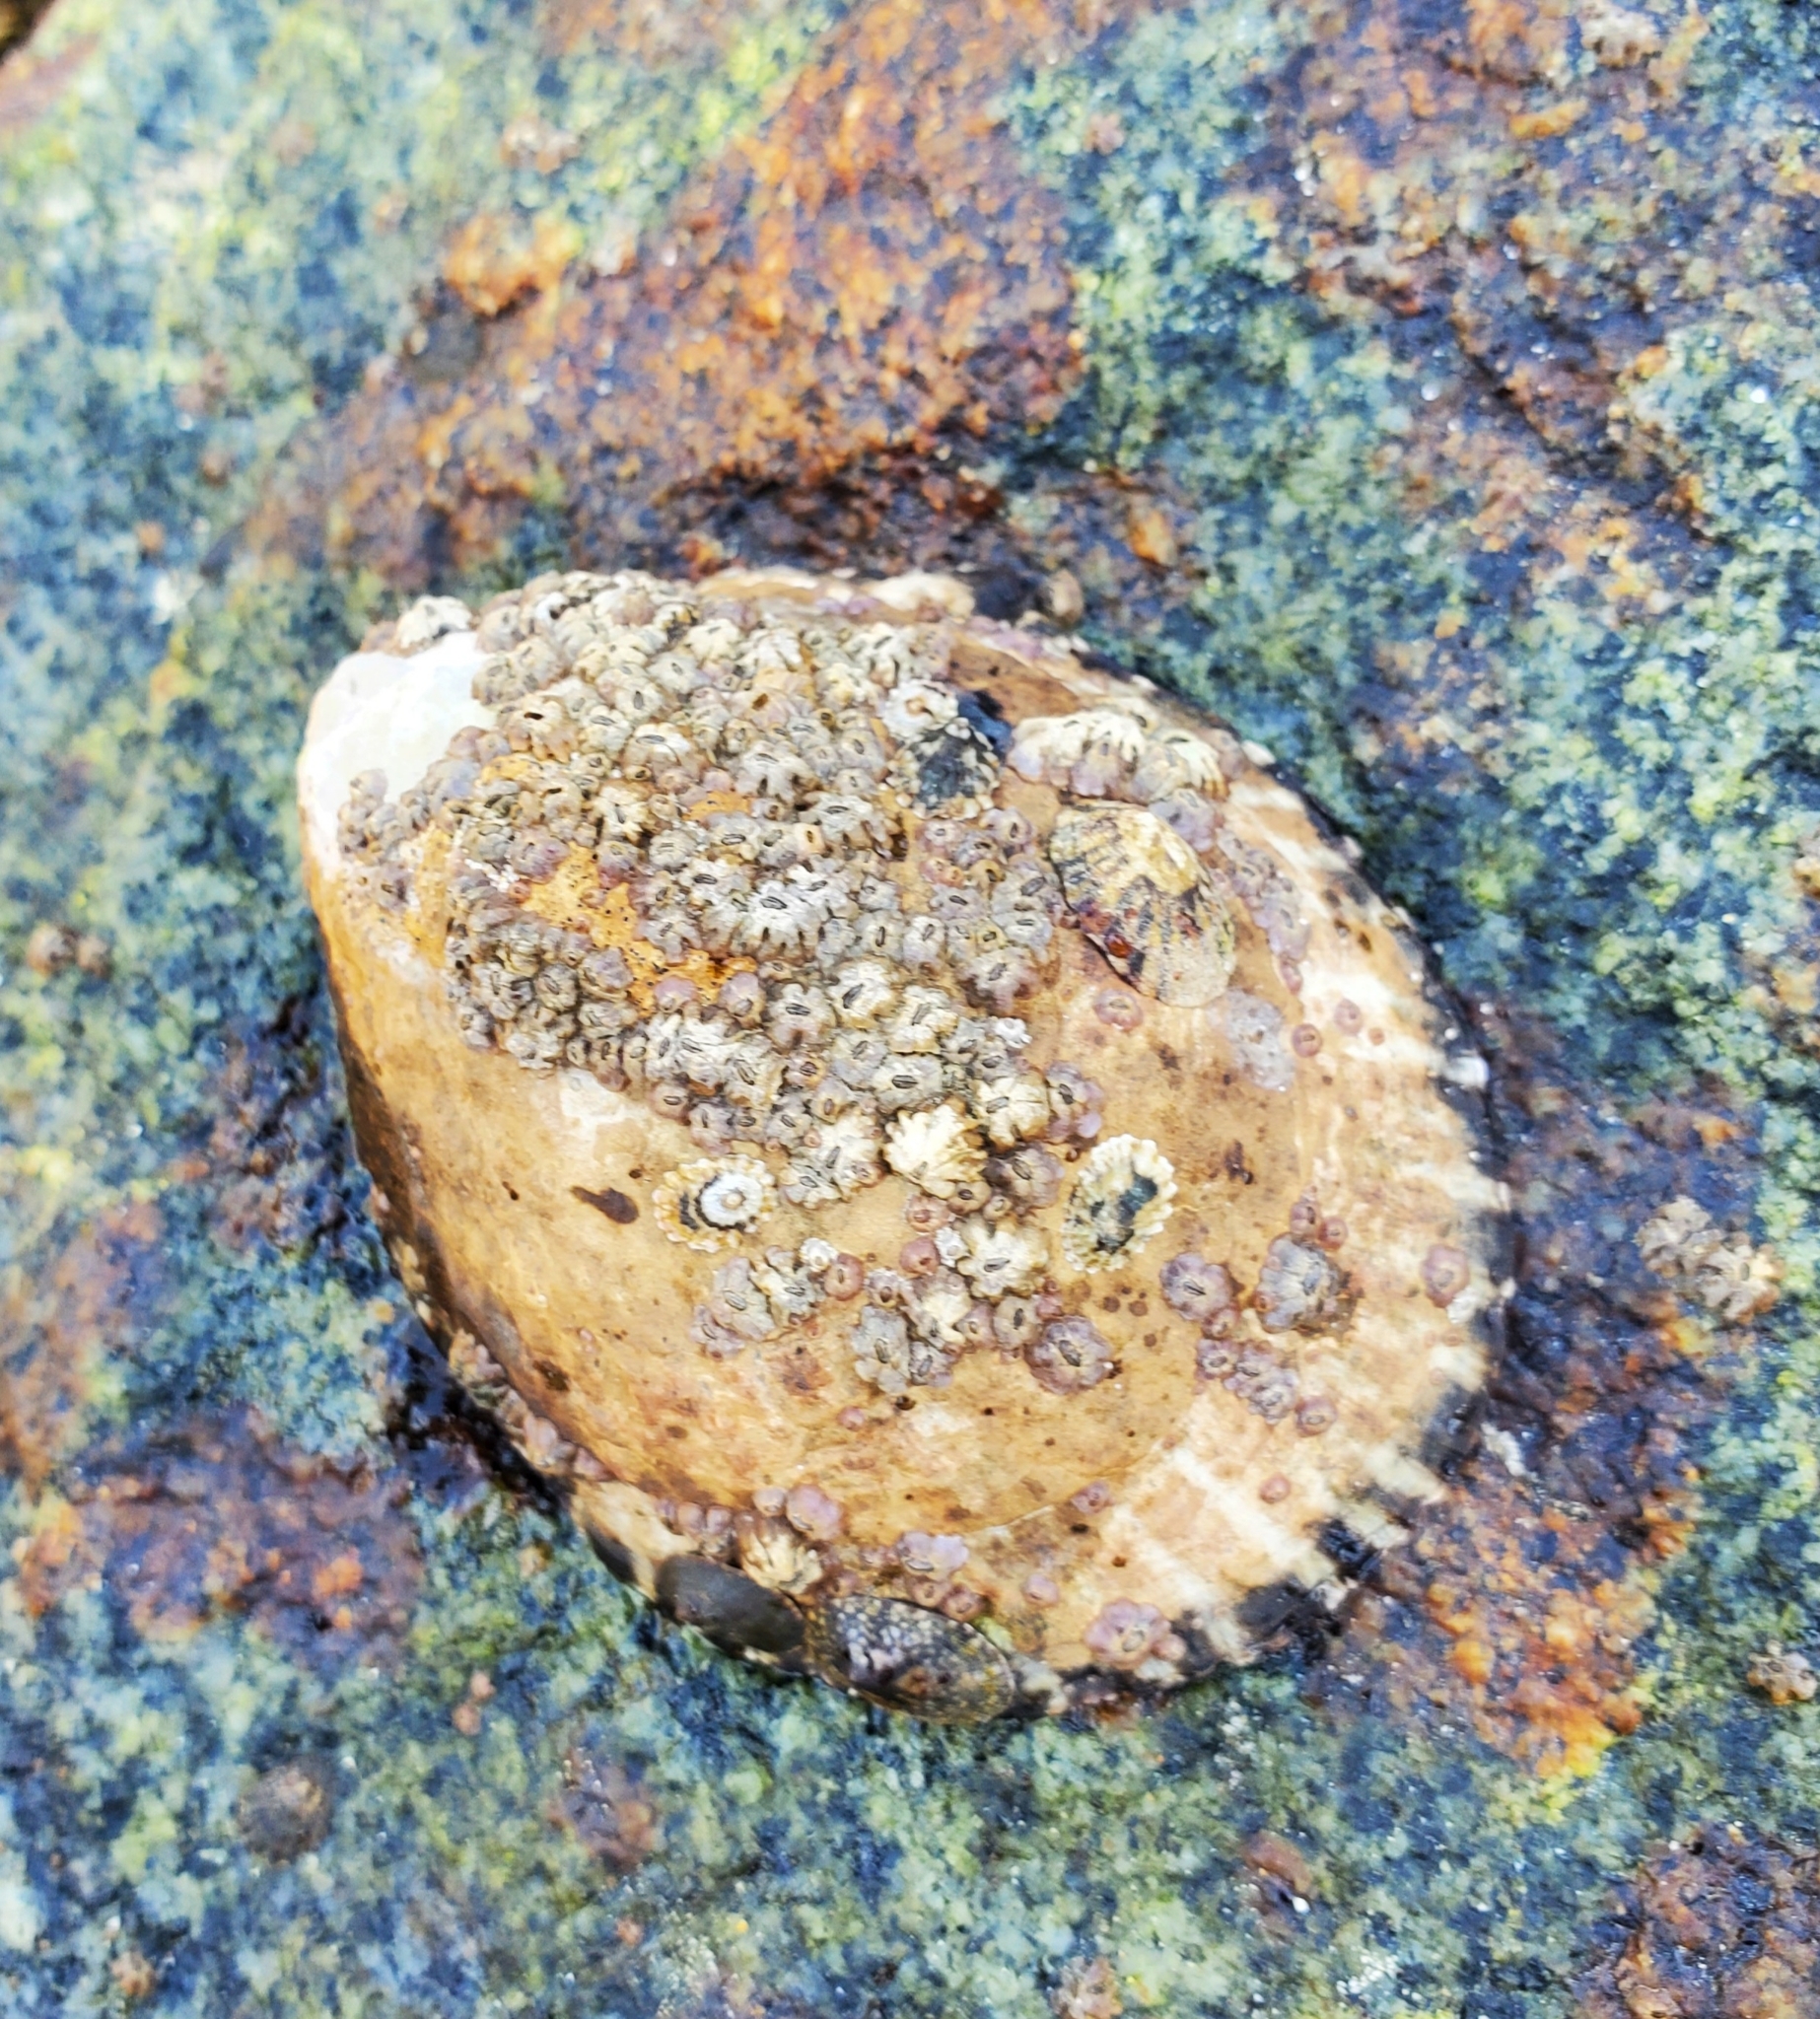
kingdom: Animalia
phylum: Mollusca
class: Gastropoda
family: Lottiidae
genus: Lottia
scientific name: Lottia gigantea
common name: Owl limpet
